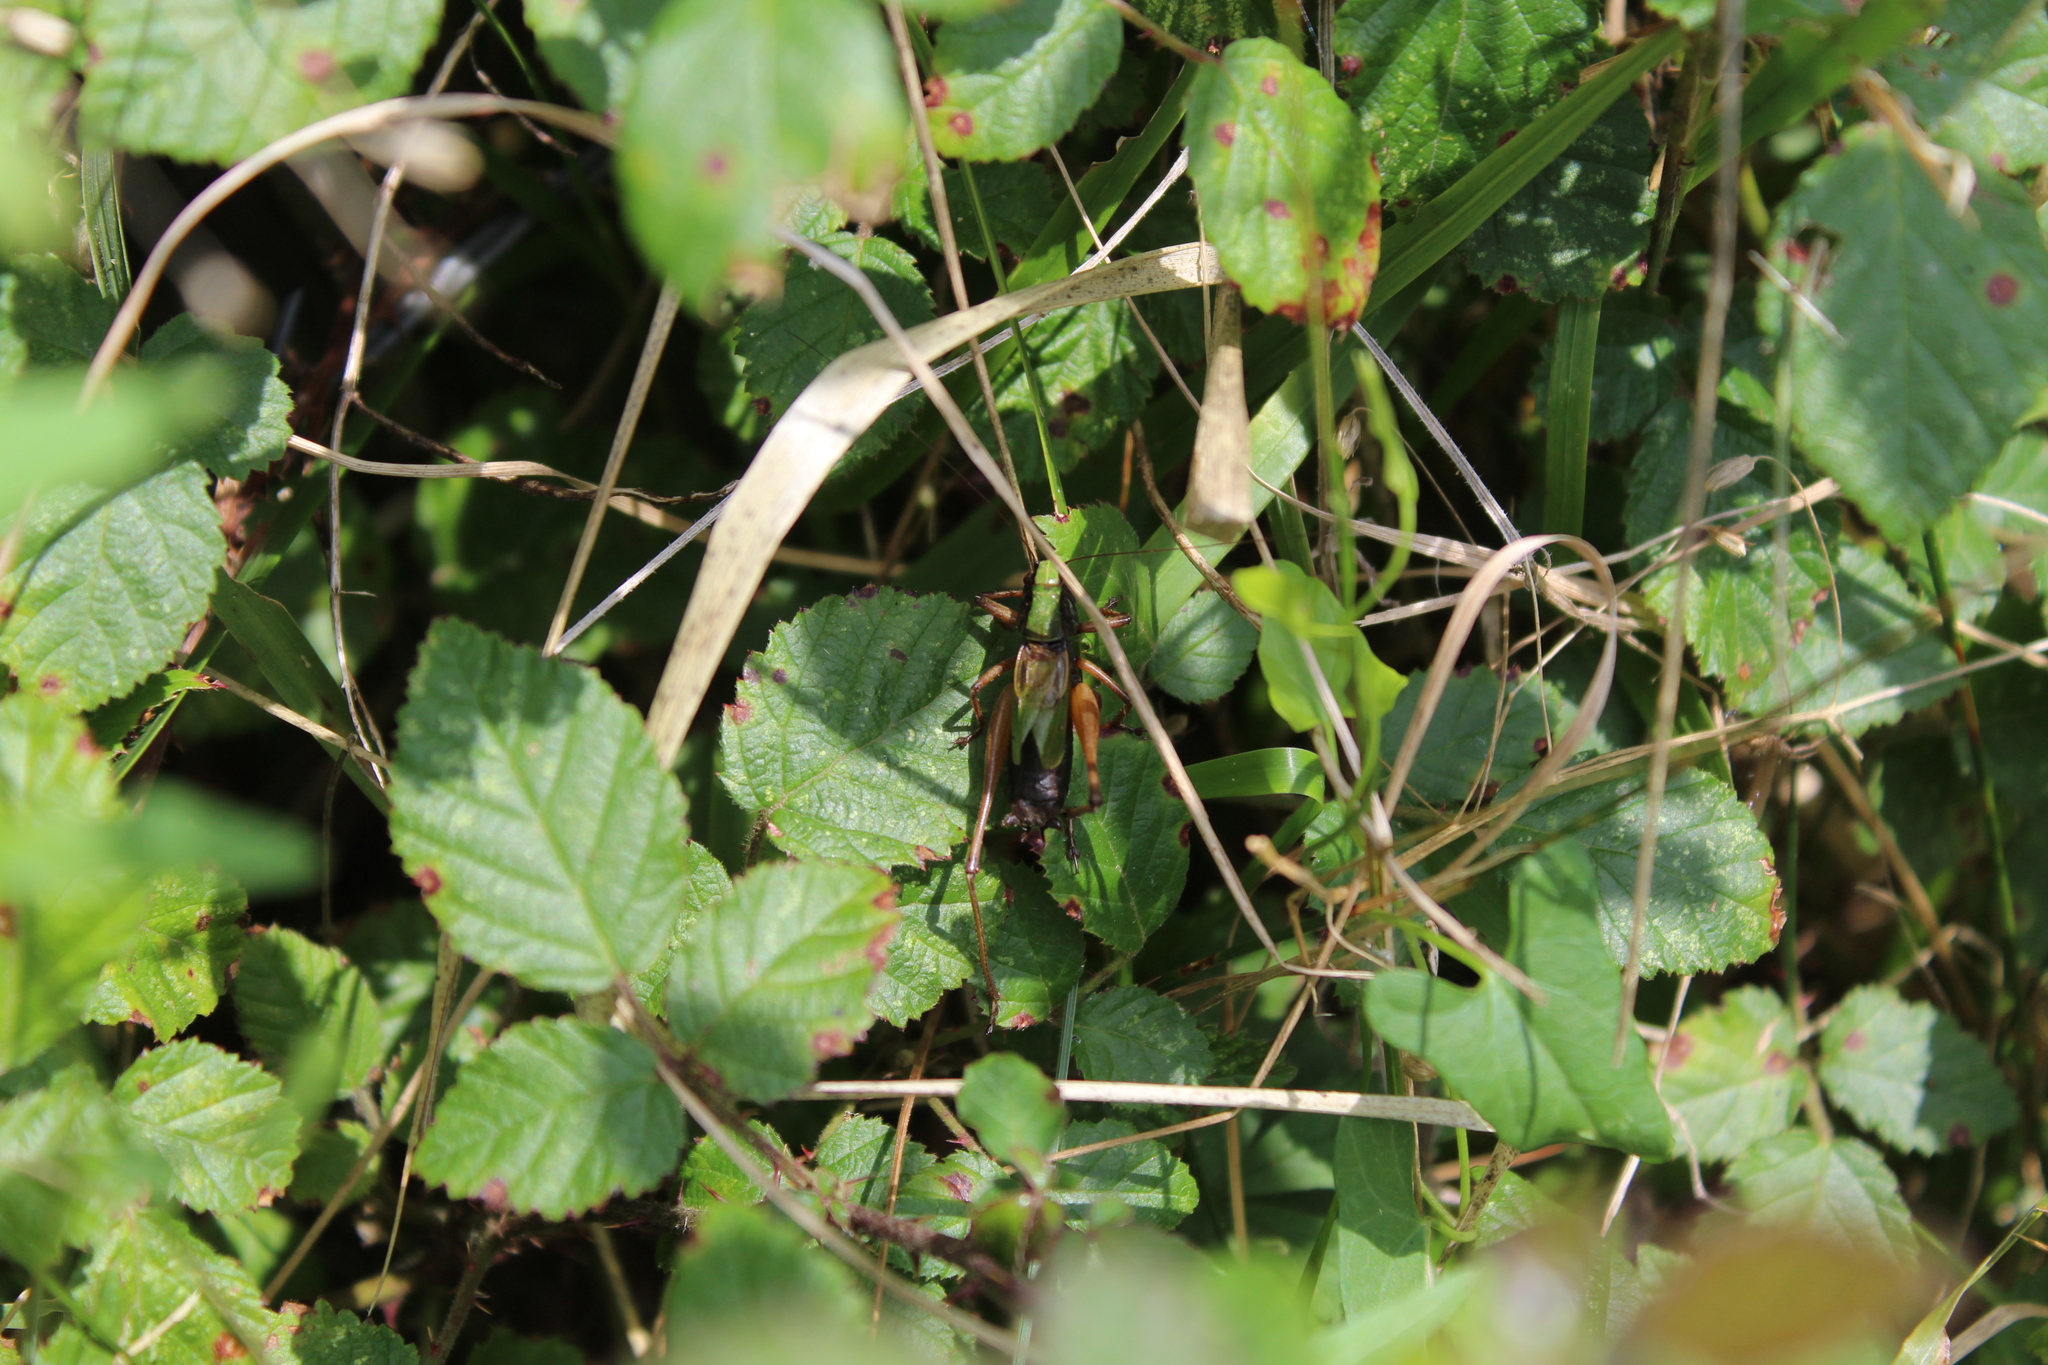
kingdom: Animalia
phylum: Arthropoda
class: Insecta
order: Orthoptera
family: Tettigoniidae
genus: Zeuneriana
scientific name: Zeuneriana abbreviata
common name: Basque bush-cricket
